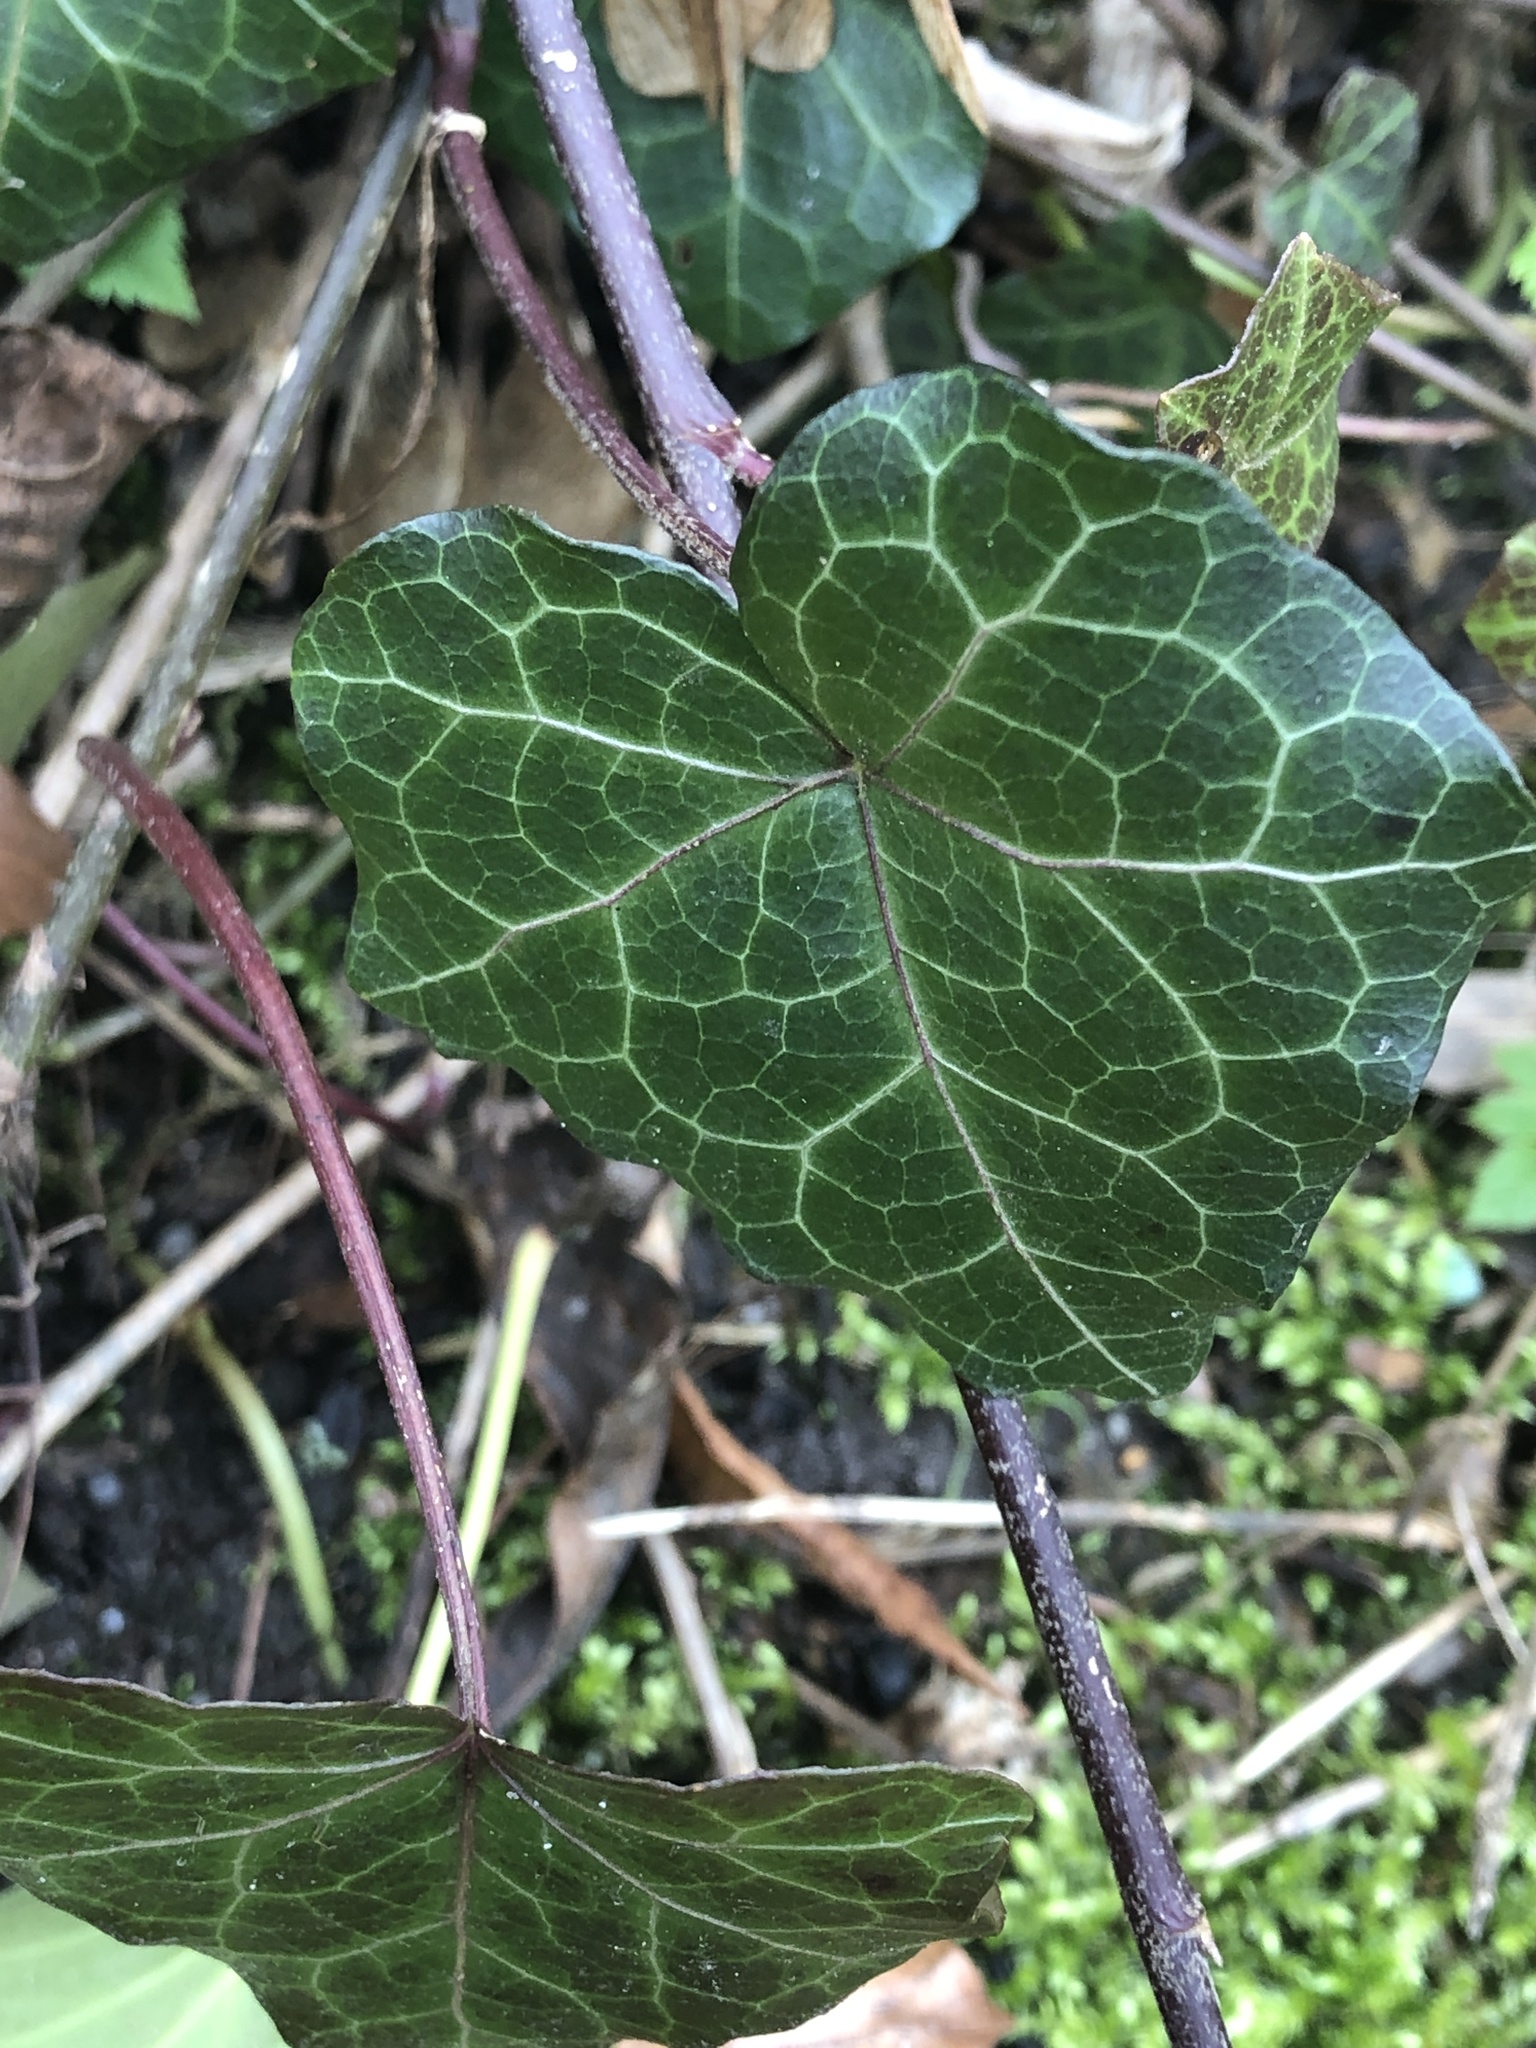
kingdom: Plantae
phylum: Tracheophyta
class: Magnoliopsida
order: Apiales
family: Araliaceae
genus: Hedera
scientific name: Hedera helix
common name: Ivy
